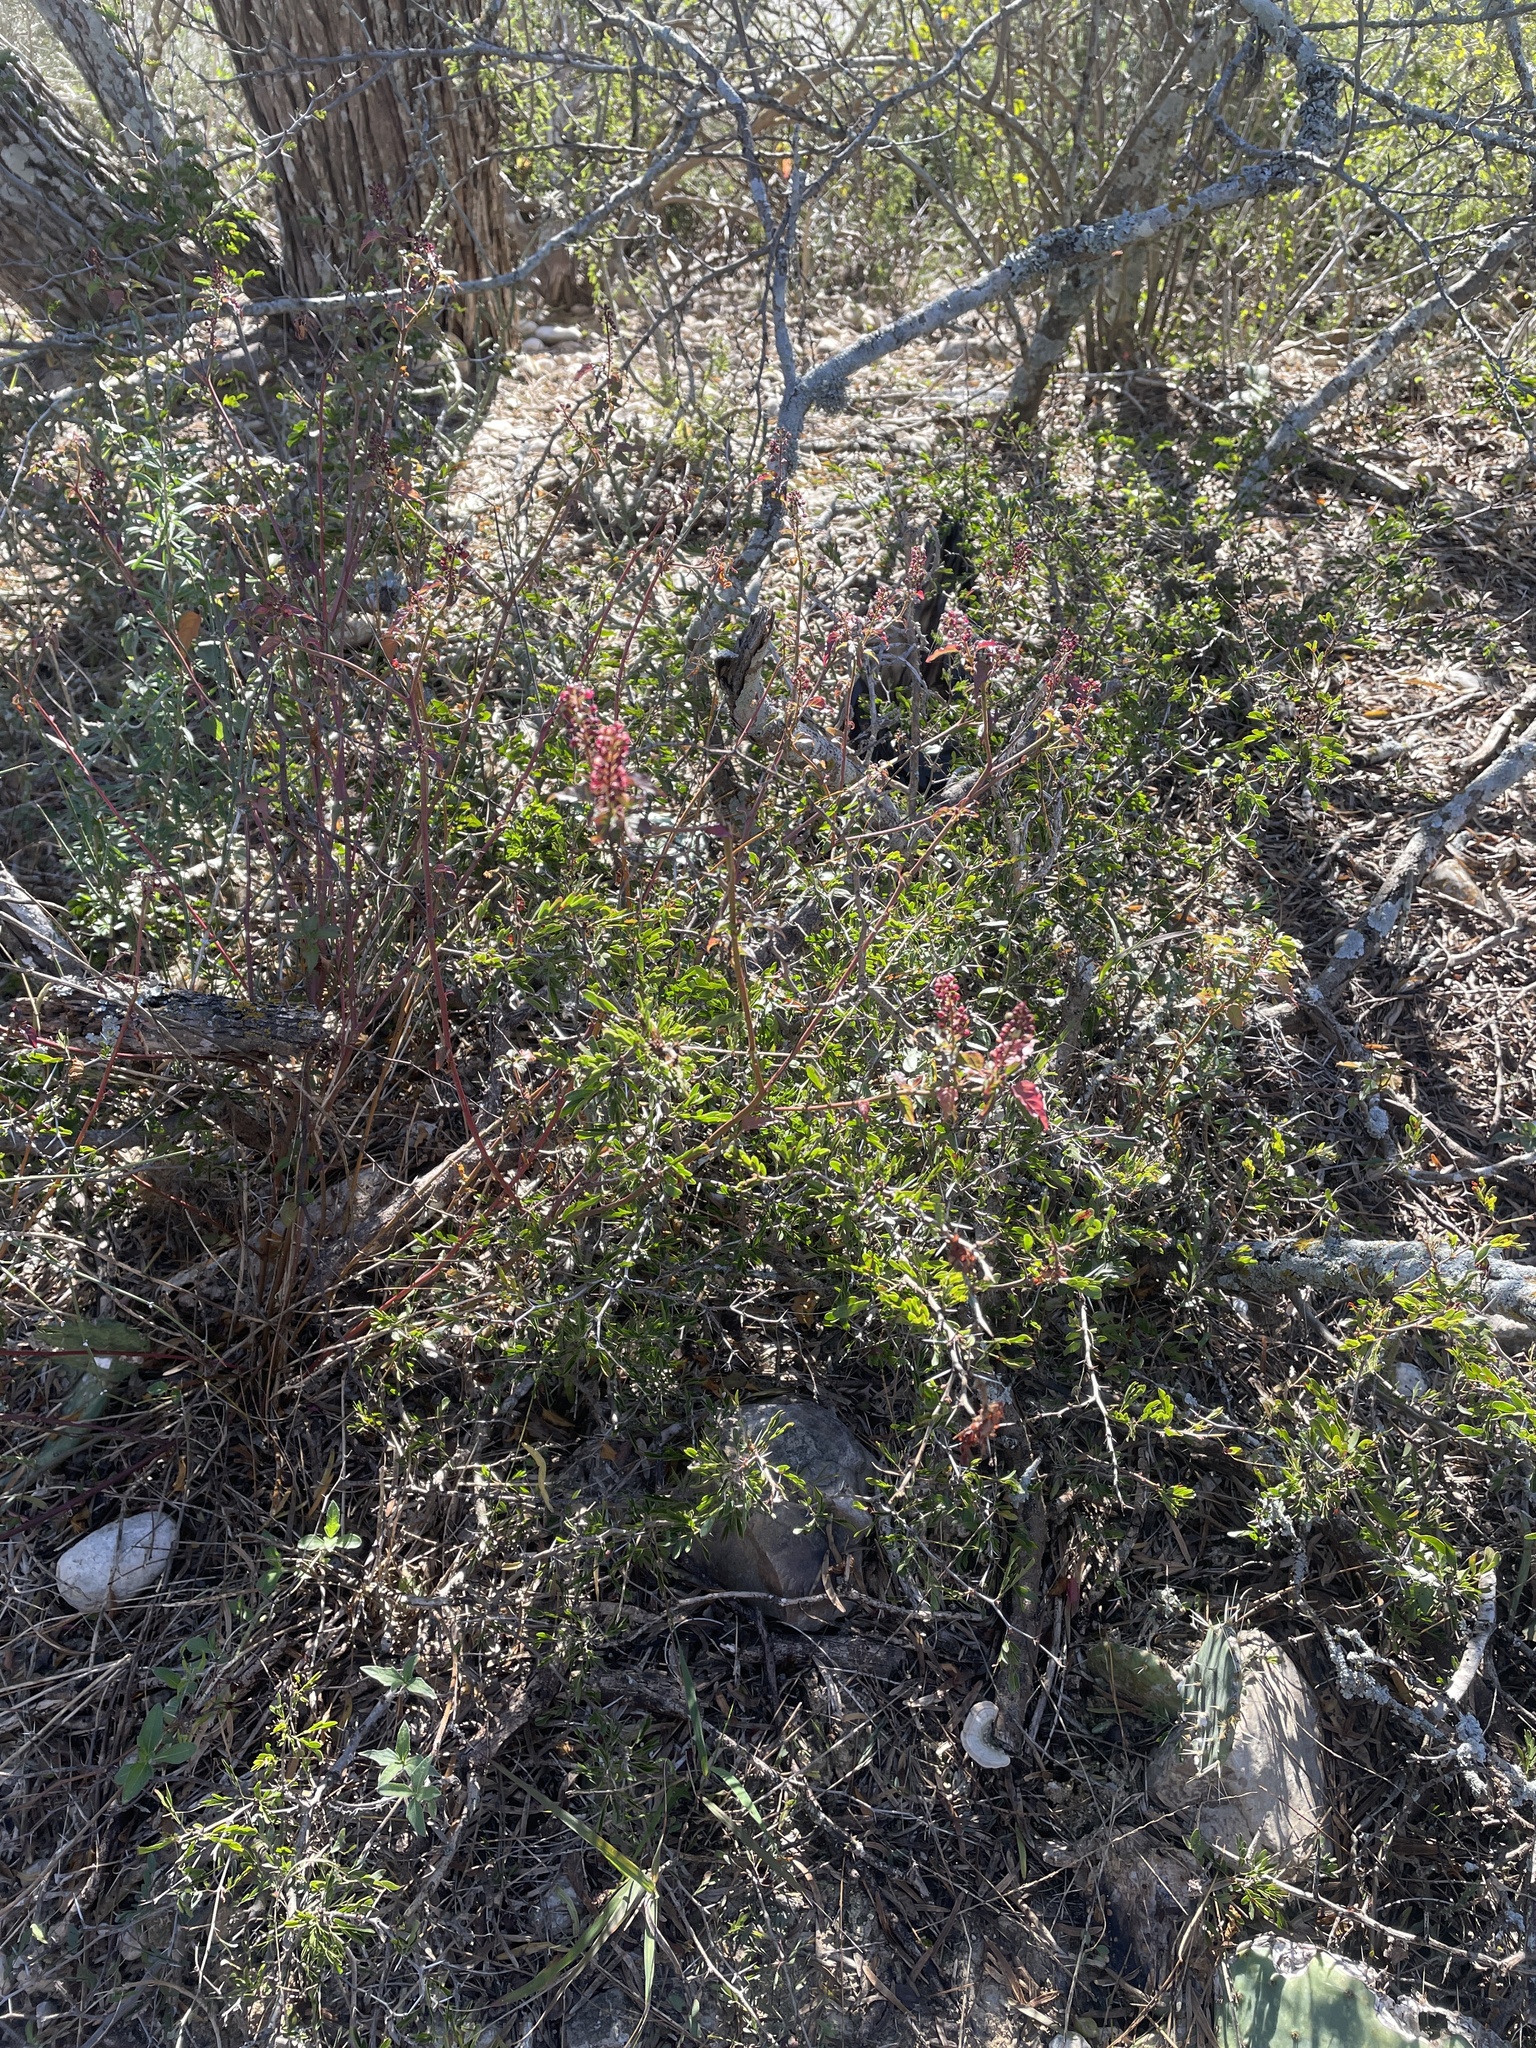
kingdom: Plantae
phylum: Tracheophyta
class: Magnoliopsida
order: Caryophyllales
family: Phytolaccaceae
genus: Rivina
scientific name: Rivina humilis
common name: Rougeplant
